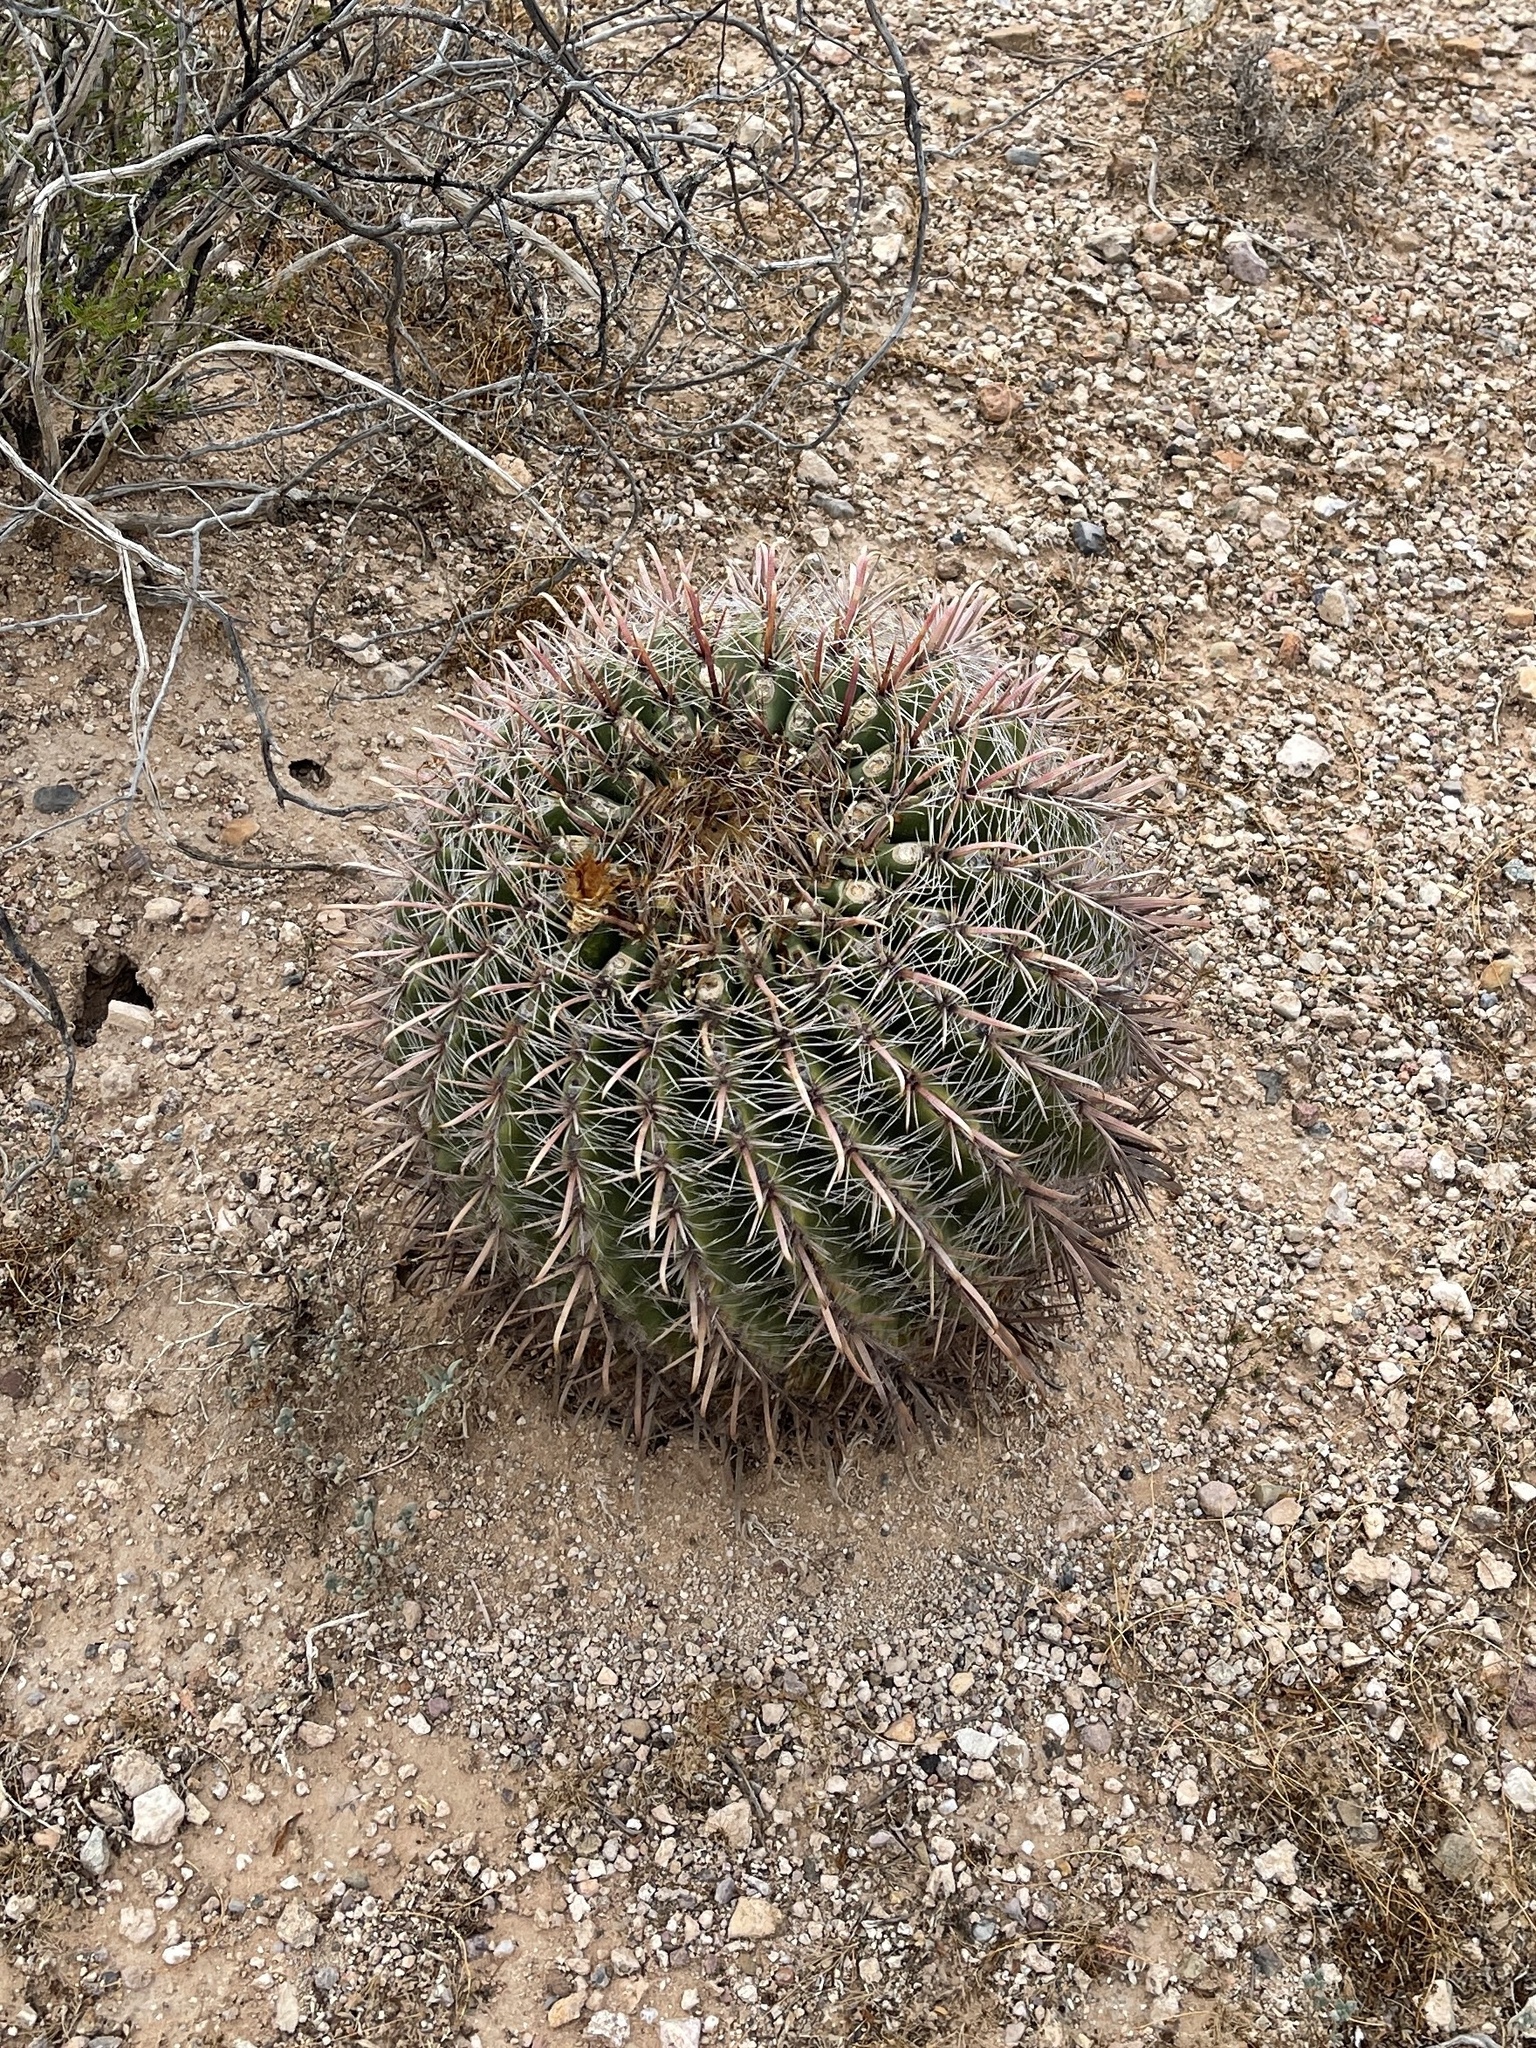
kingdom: Plantae
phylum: Tracheophyta
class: Magnoliopsida
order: Caryophyllales
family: Cactaceae
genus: Ferocactus
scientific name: Ferocactus wislizeni
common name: Candy barrel cactus
